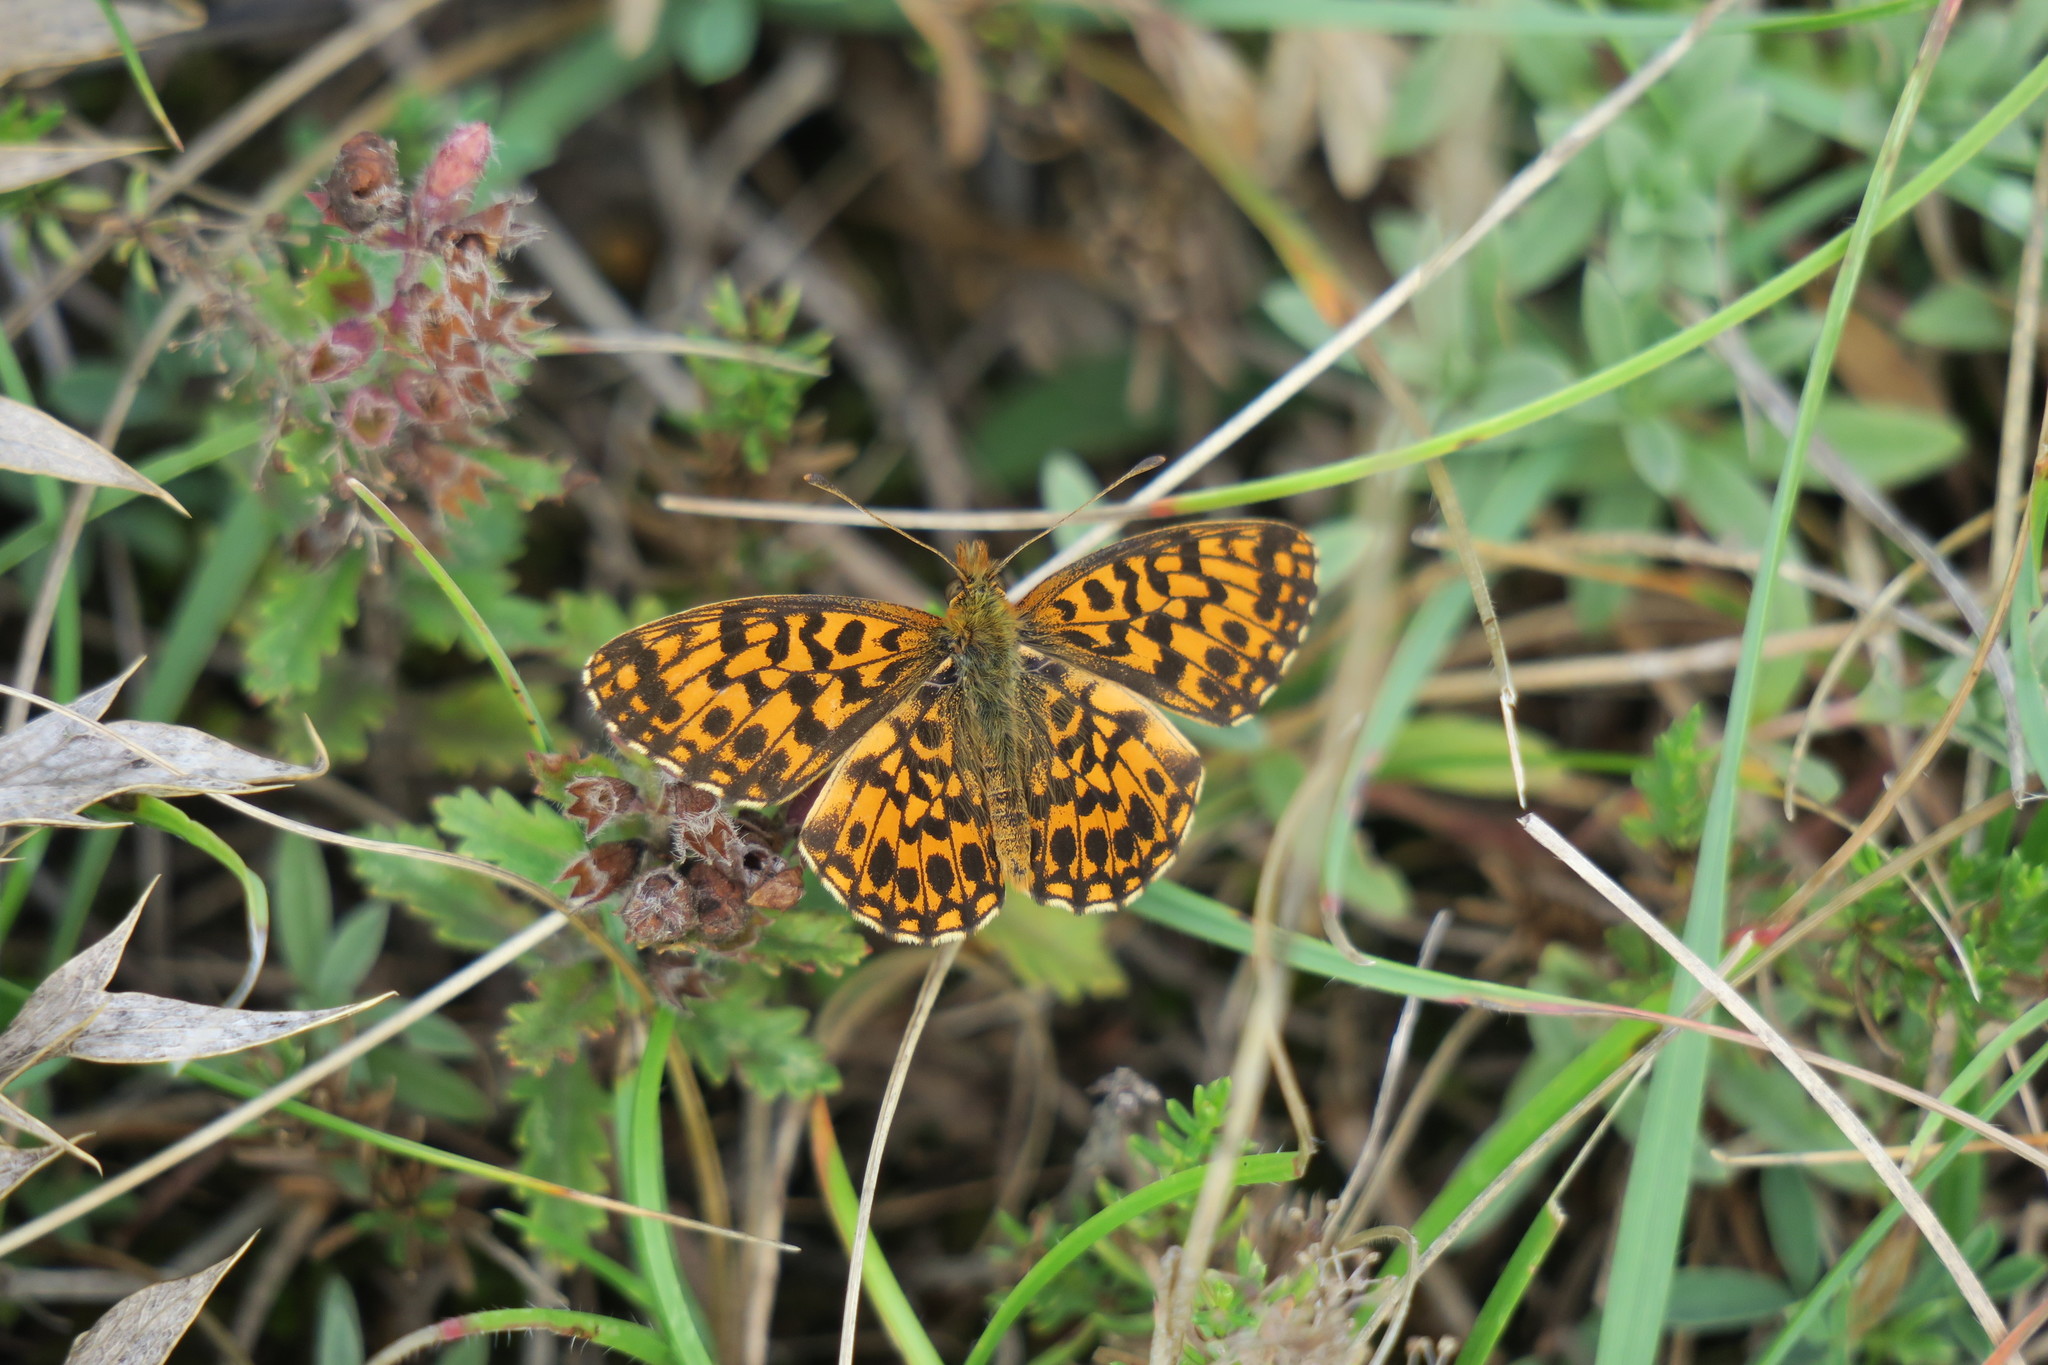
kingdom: Animalia
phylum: Arthropoda
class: Insecta
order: Lepidoptera
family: Nymphalidae
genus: Boloria
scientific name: Boloria dia
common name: Weaver's fritillary
